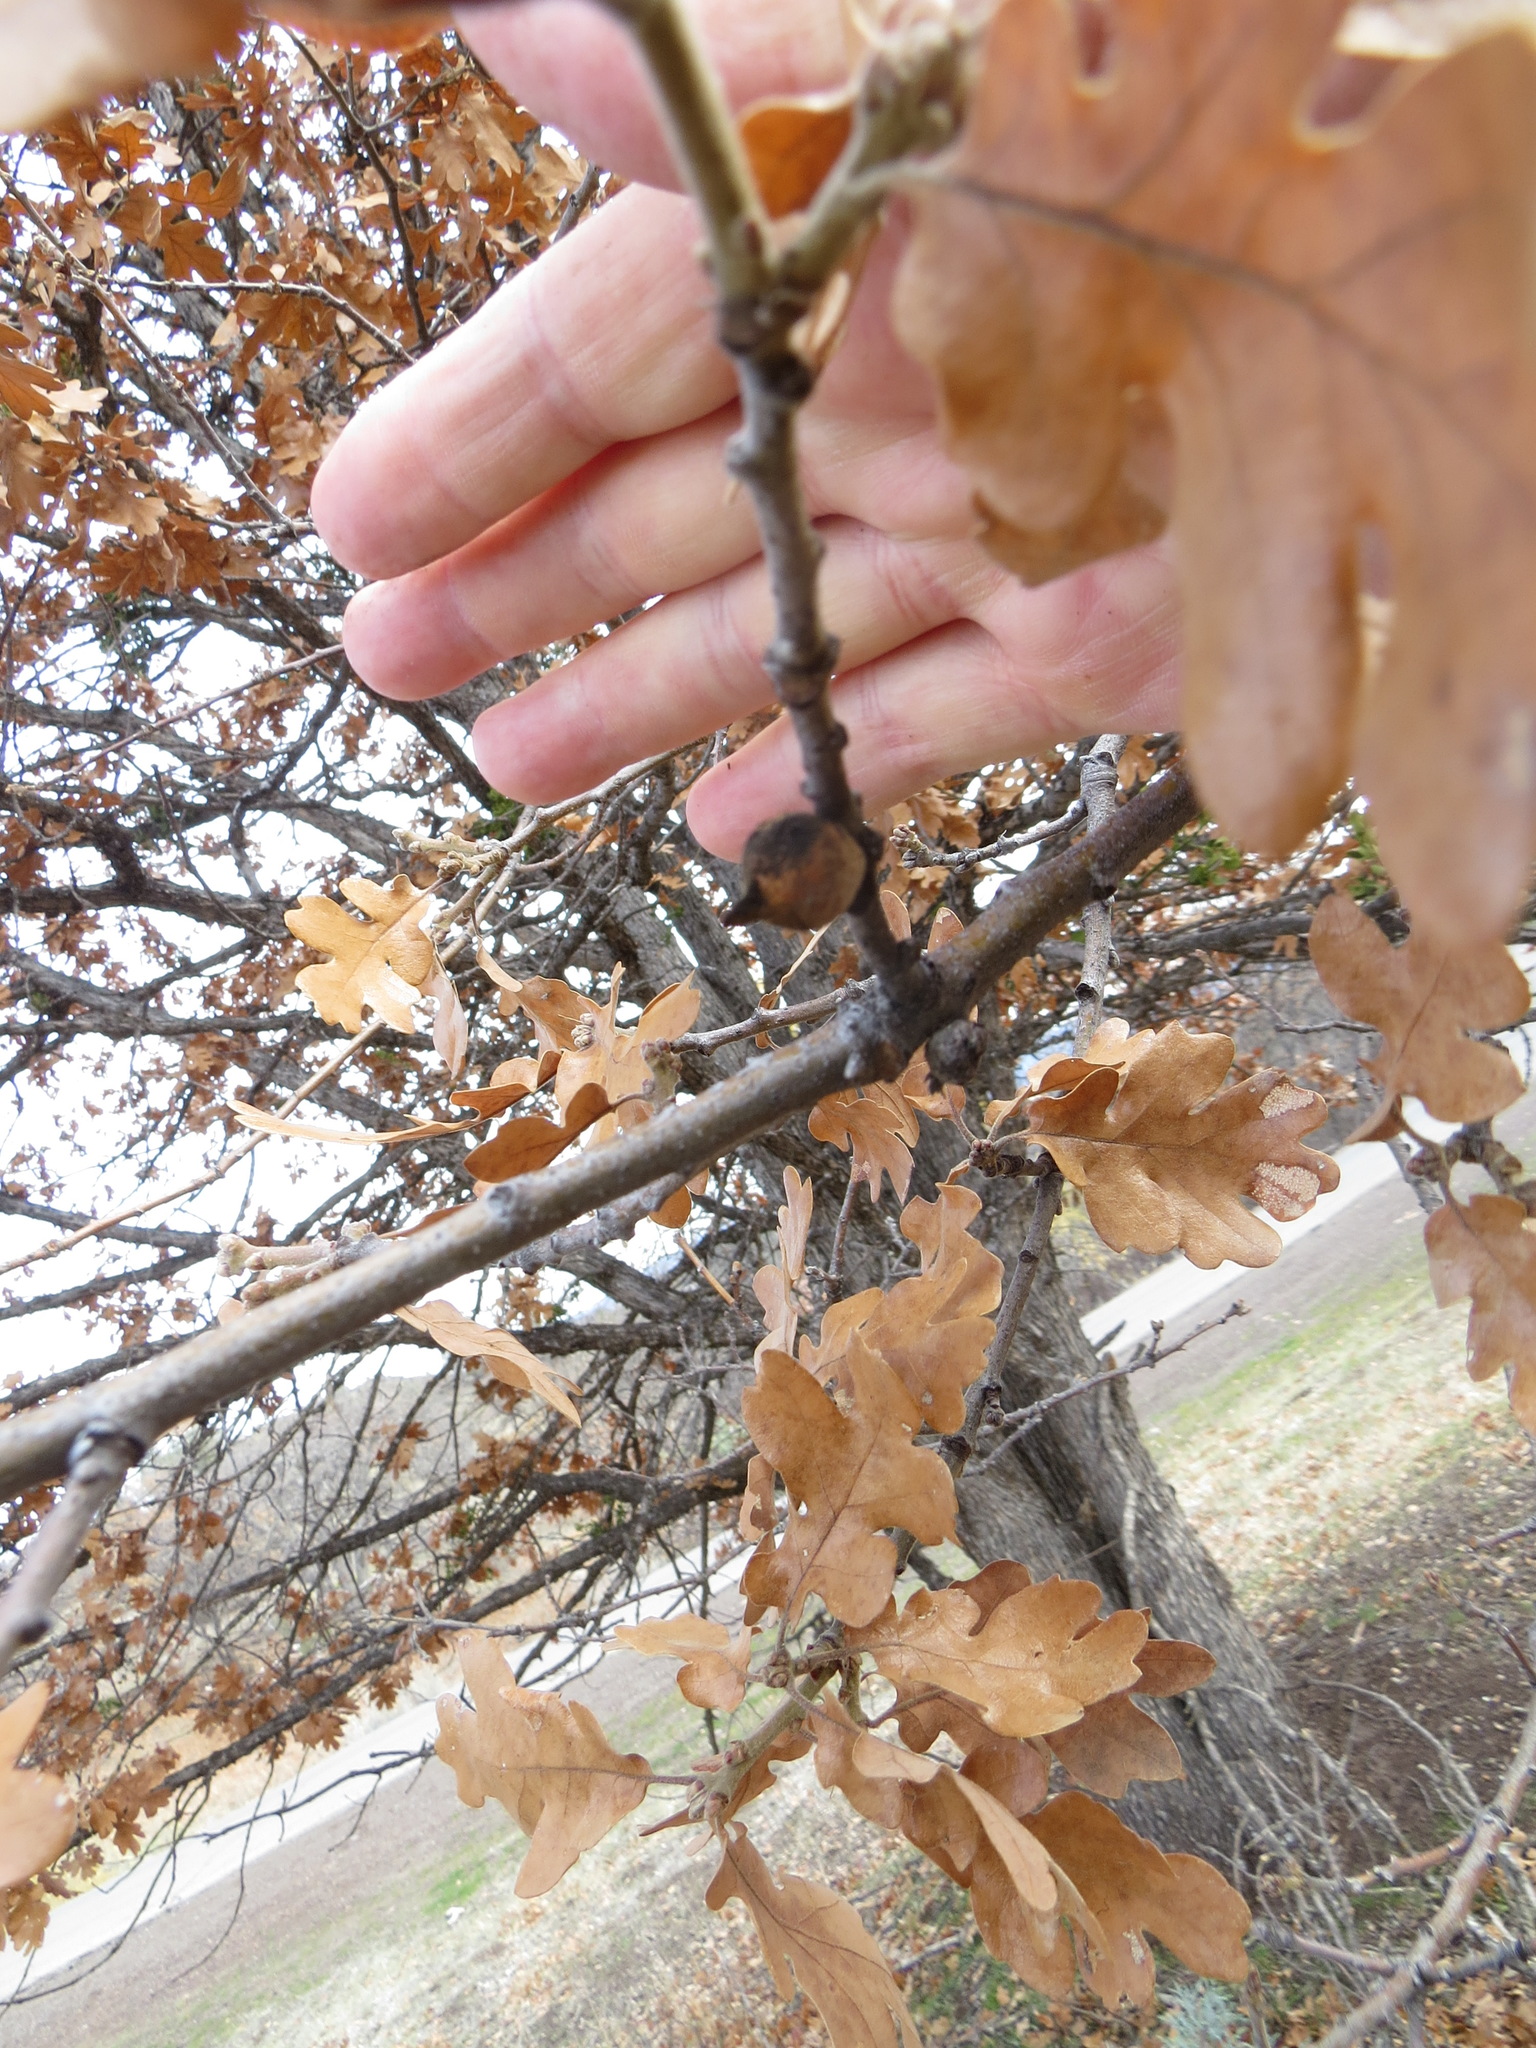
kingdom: Plantae
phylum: Tracheophyta
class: Magnoliopsida
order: Fagales
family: Fagaceae
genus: Quercus
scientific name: Quercus garryana
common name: Garry oak
